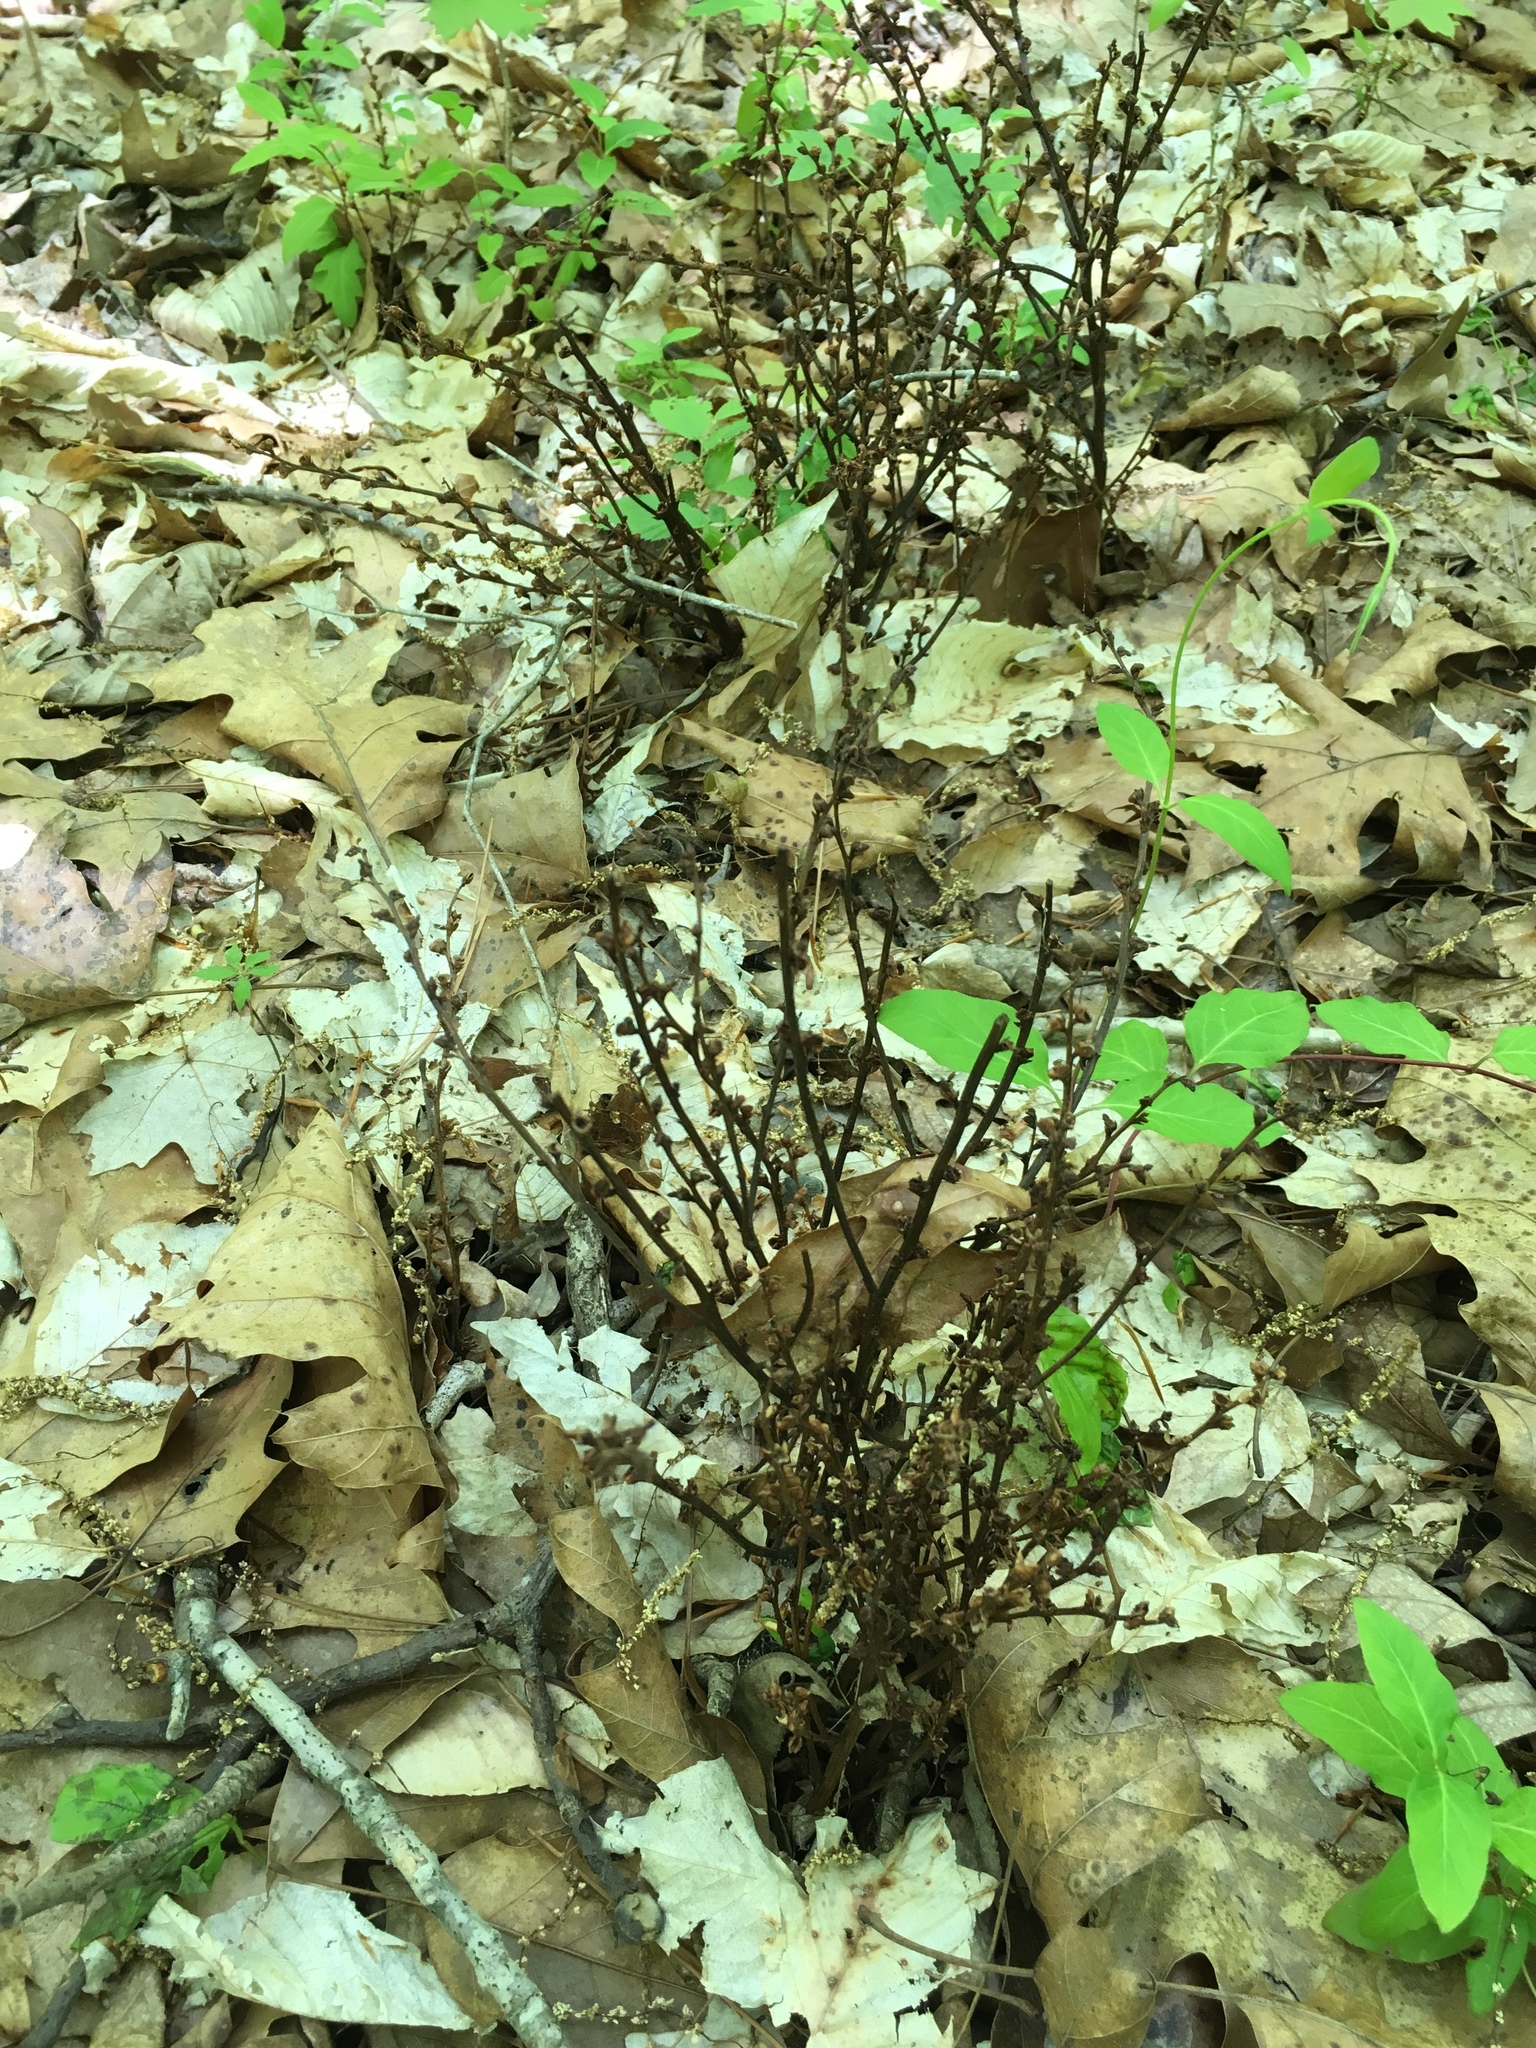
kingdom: Plantae
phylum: Tracheophyta
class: Magnoliopsida
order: Lamiales
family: Orobanchaceae
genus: Epifagus
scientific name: Epifagus virginiana
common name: Beechdrops
